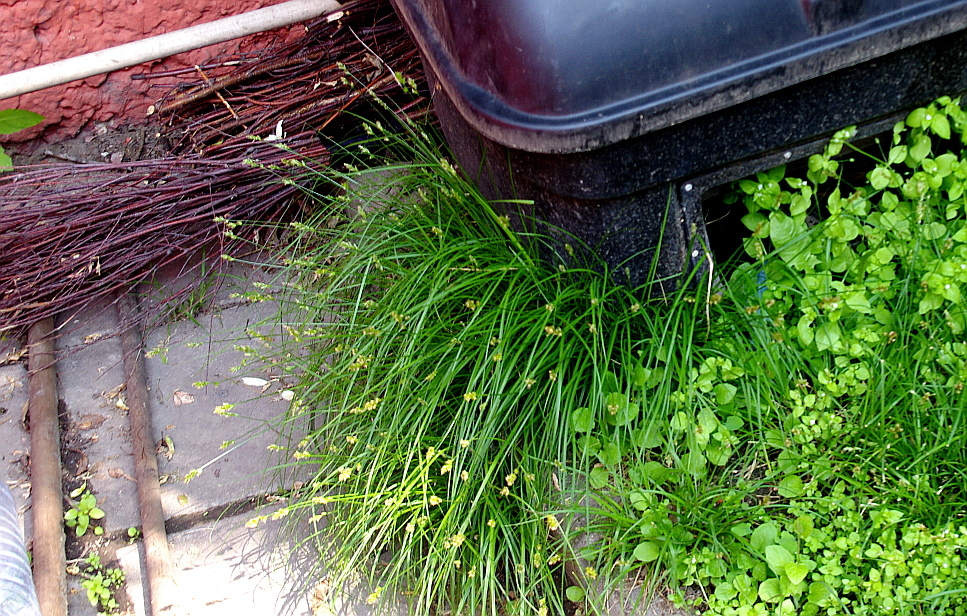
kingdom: Plantae
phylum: Tracheophyta
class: Liliopsida
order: Poales
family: Cyperaceae
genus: Carex
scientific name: Carex spicata
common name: Spiked sedge
